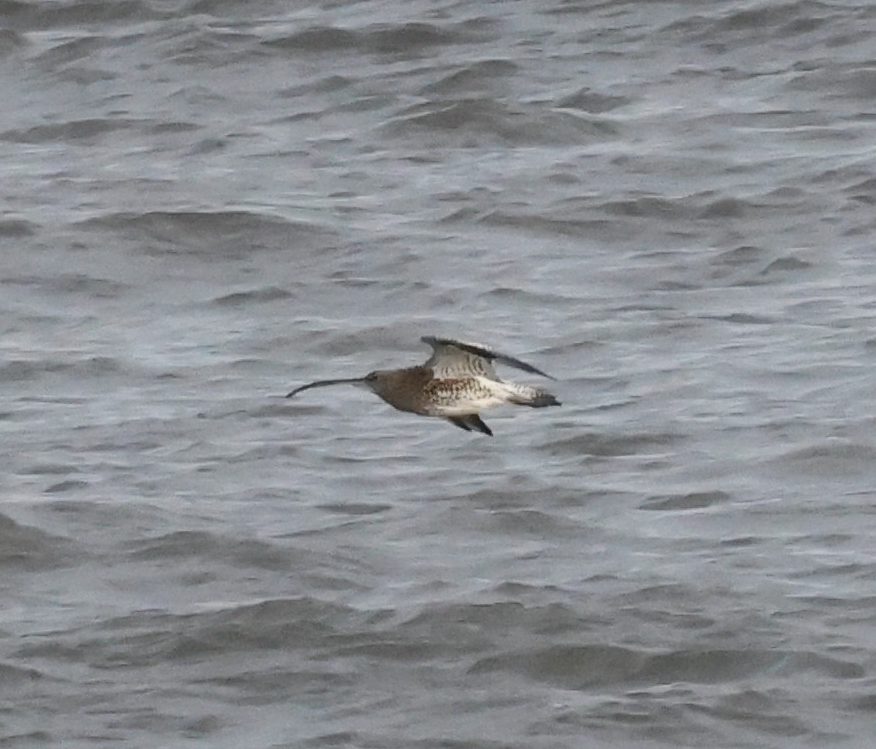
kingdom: Animalia
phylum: Chordata
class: Aves
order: Charadriiformes
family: Scolopacidae
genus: Numenius
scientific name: Numenius arquata
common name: Eurasian curlew
